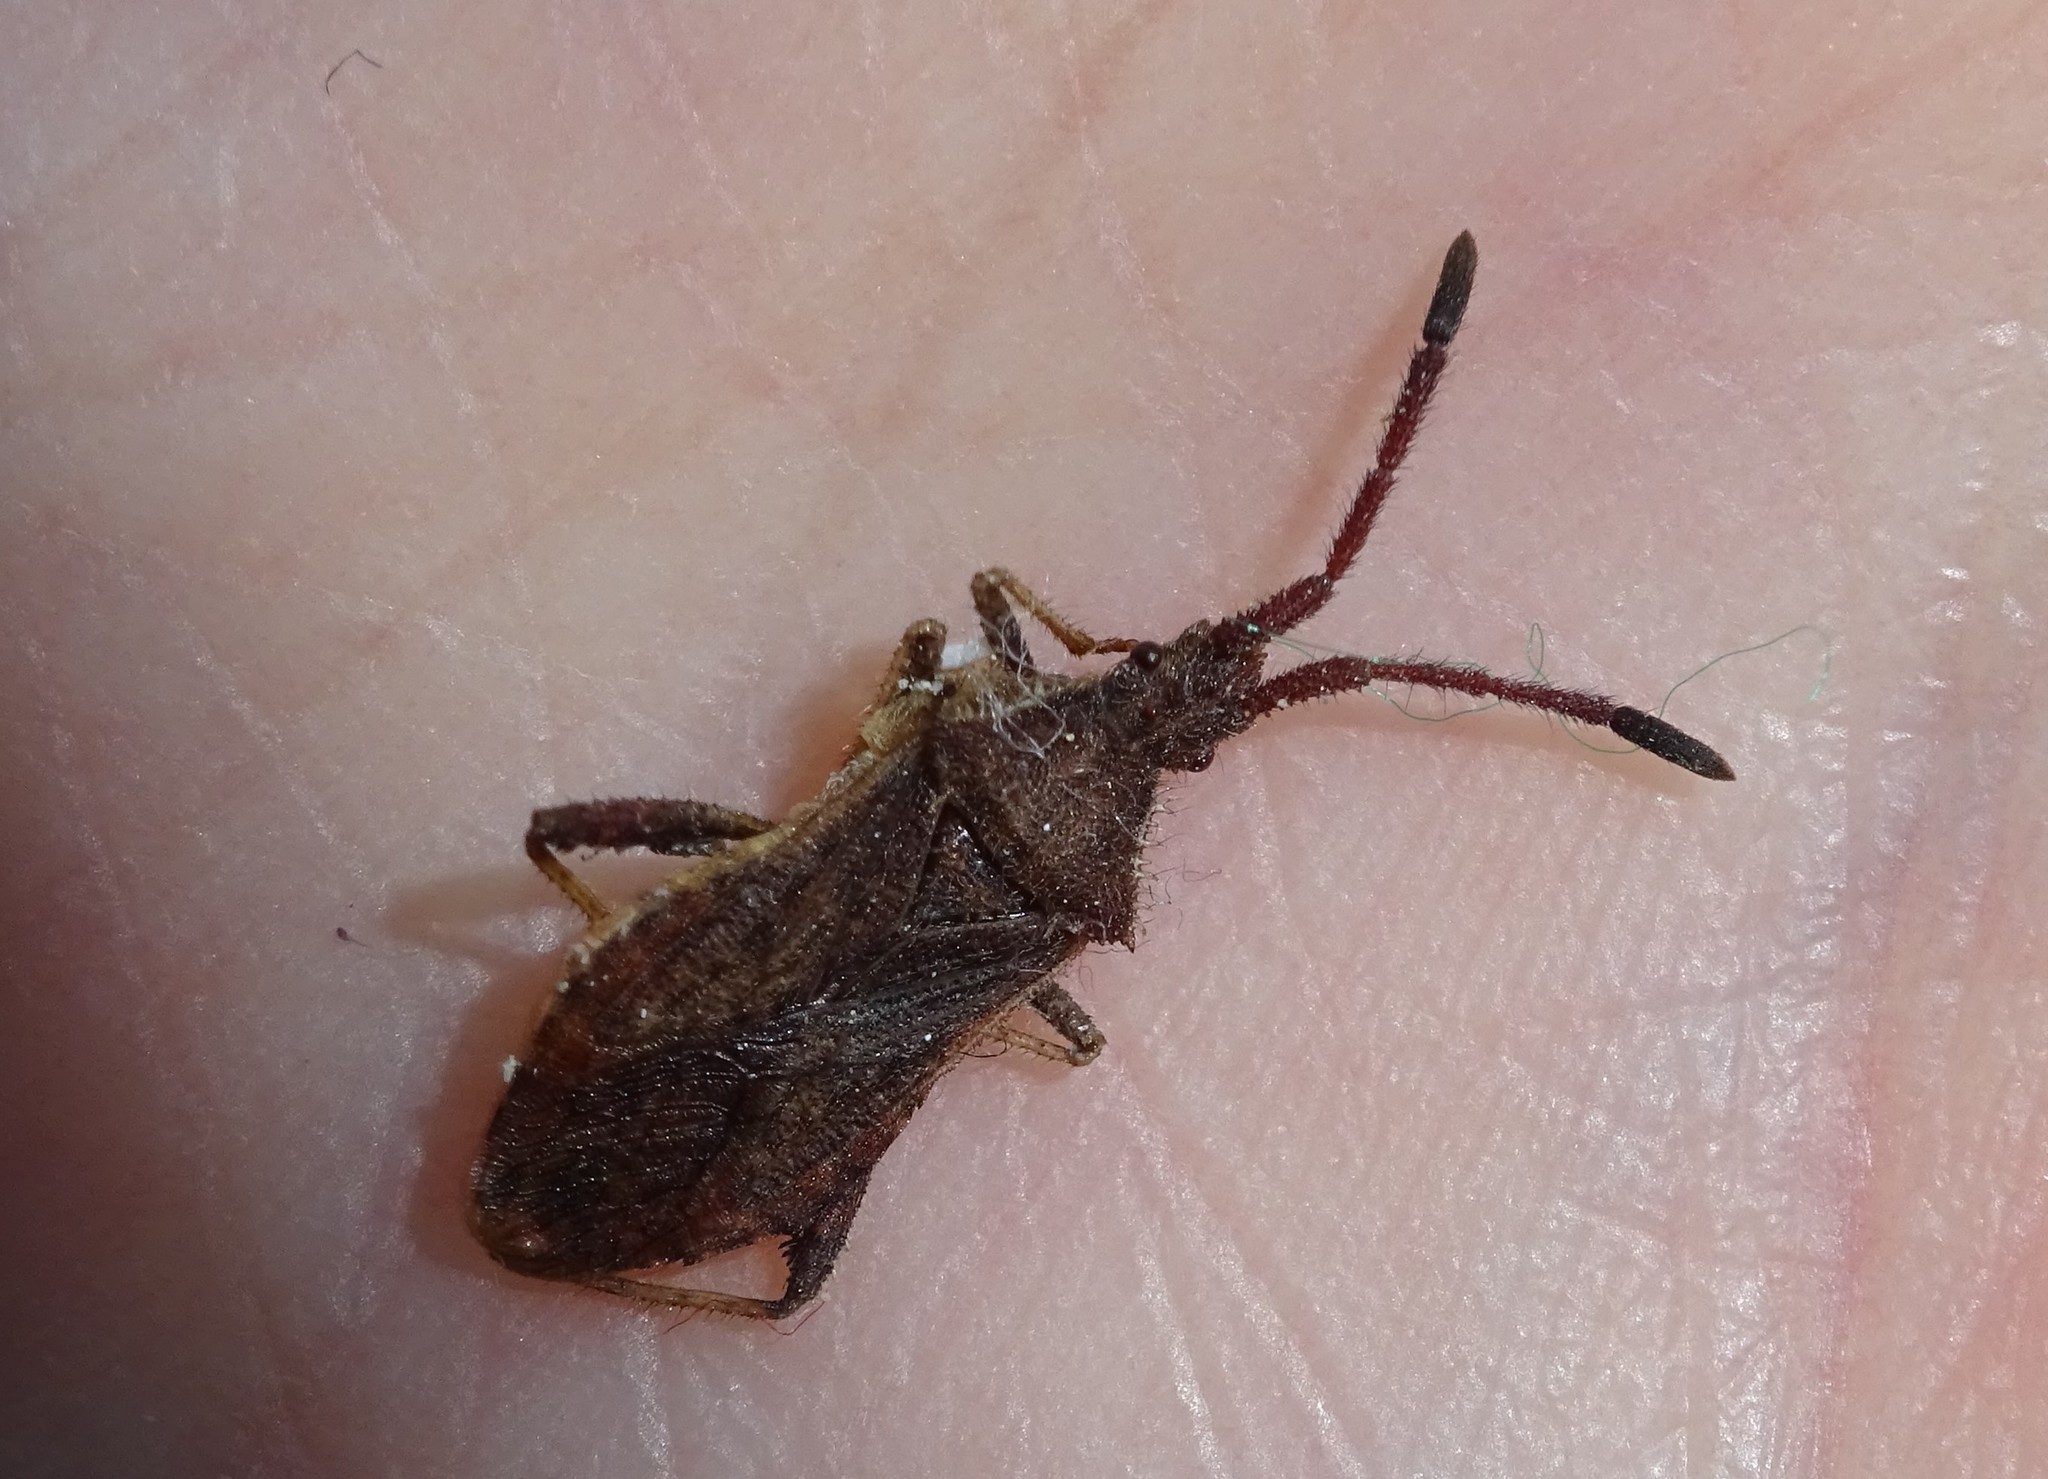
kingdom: Animalia
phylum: Arthropoda
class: Insecta
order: Hemiptera
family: Coreidae
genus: Coriomeris
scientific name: Coriomeris denticulatus
